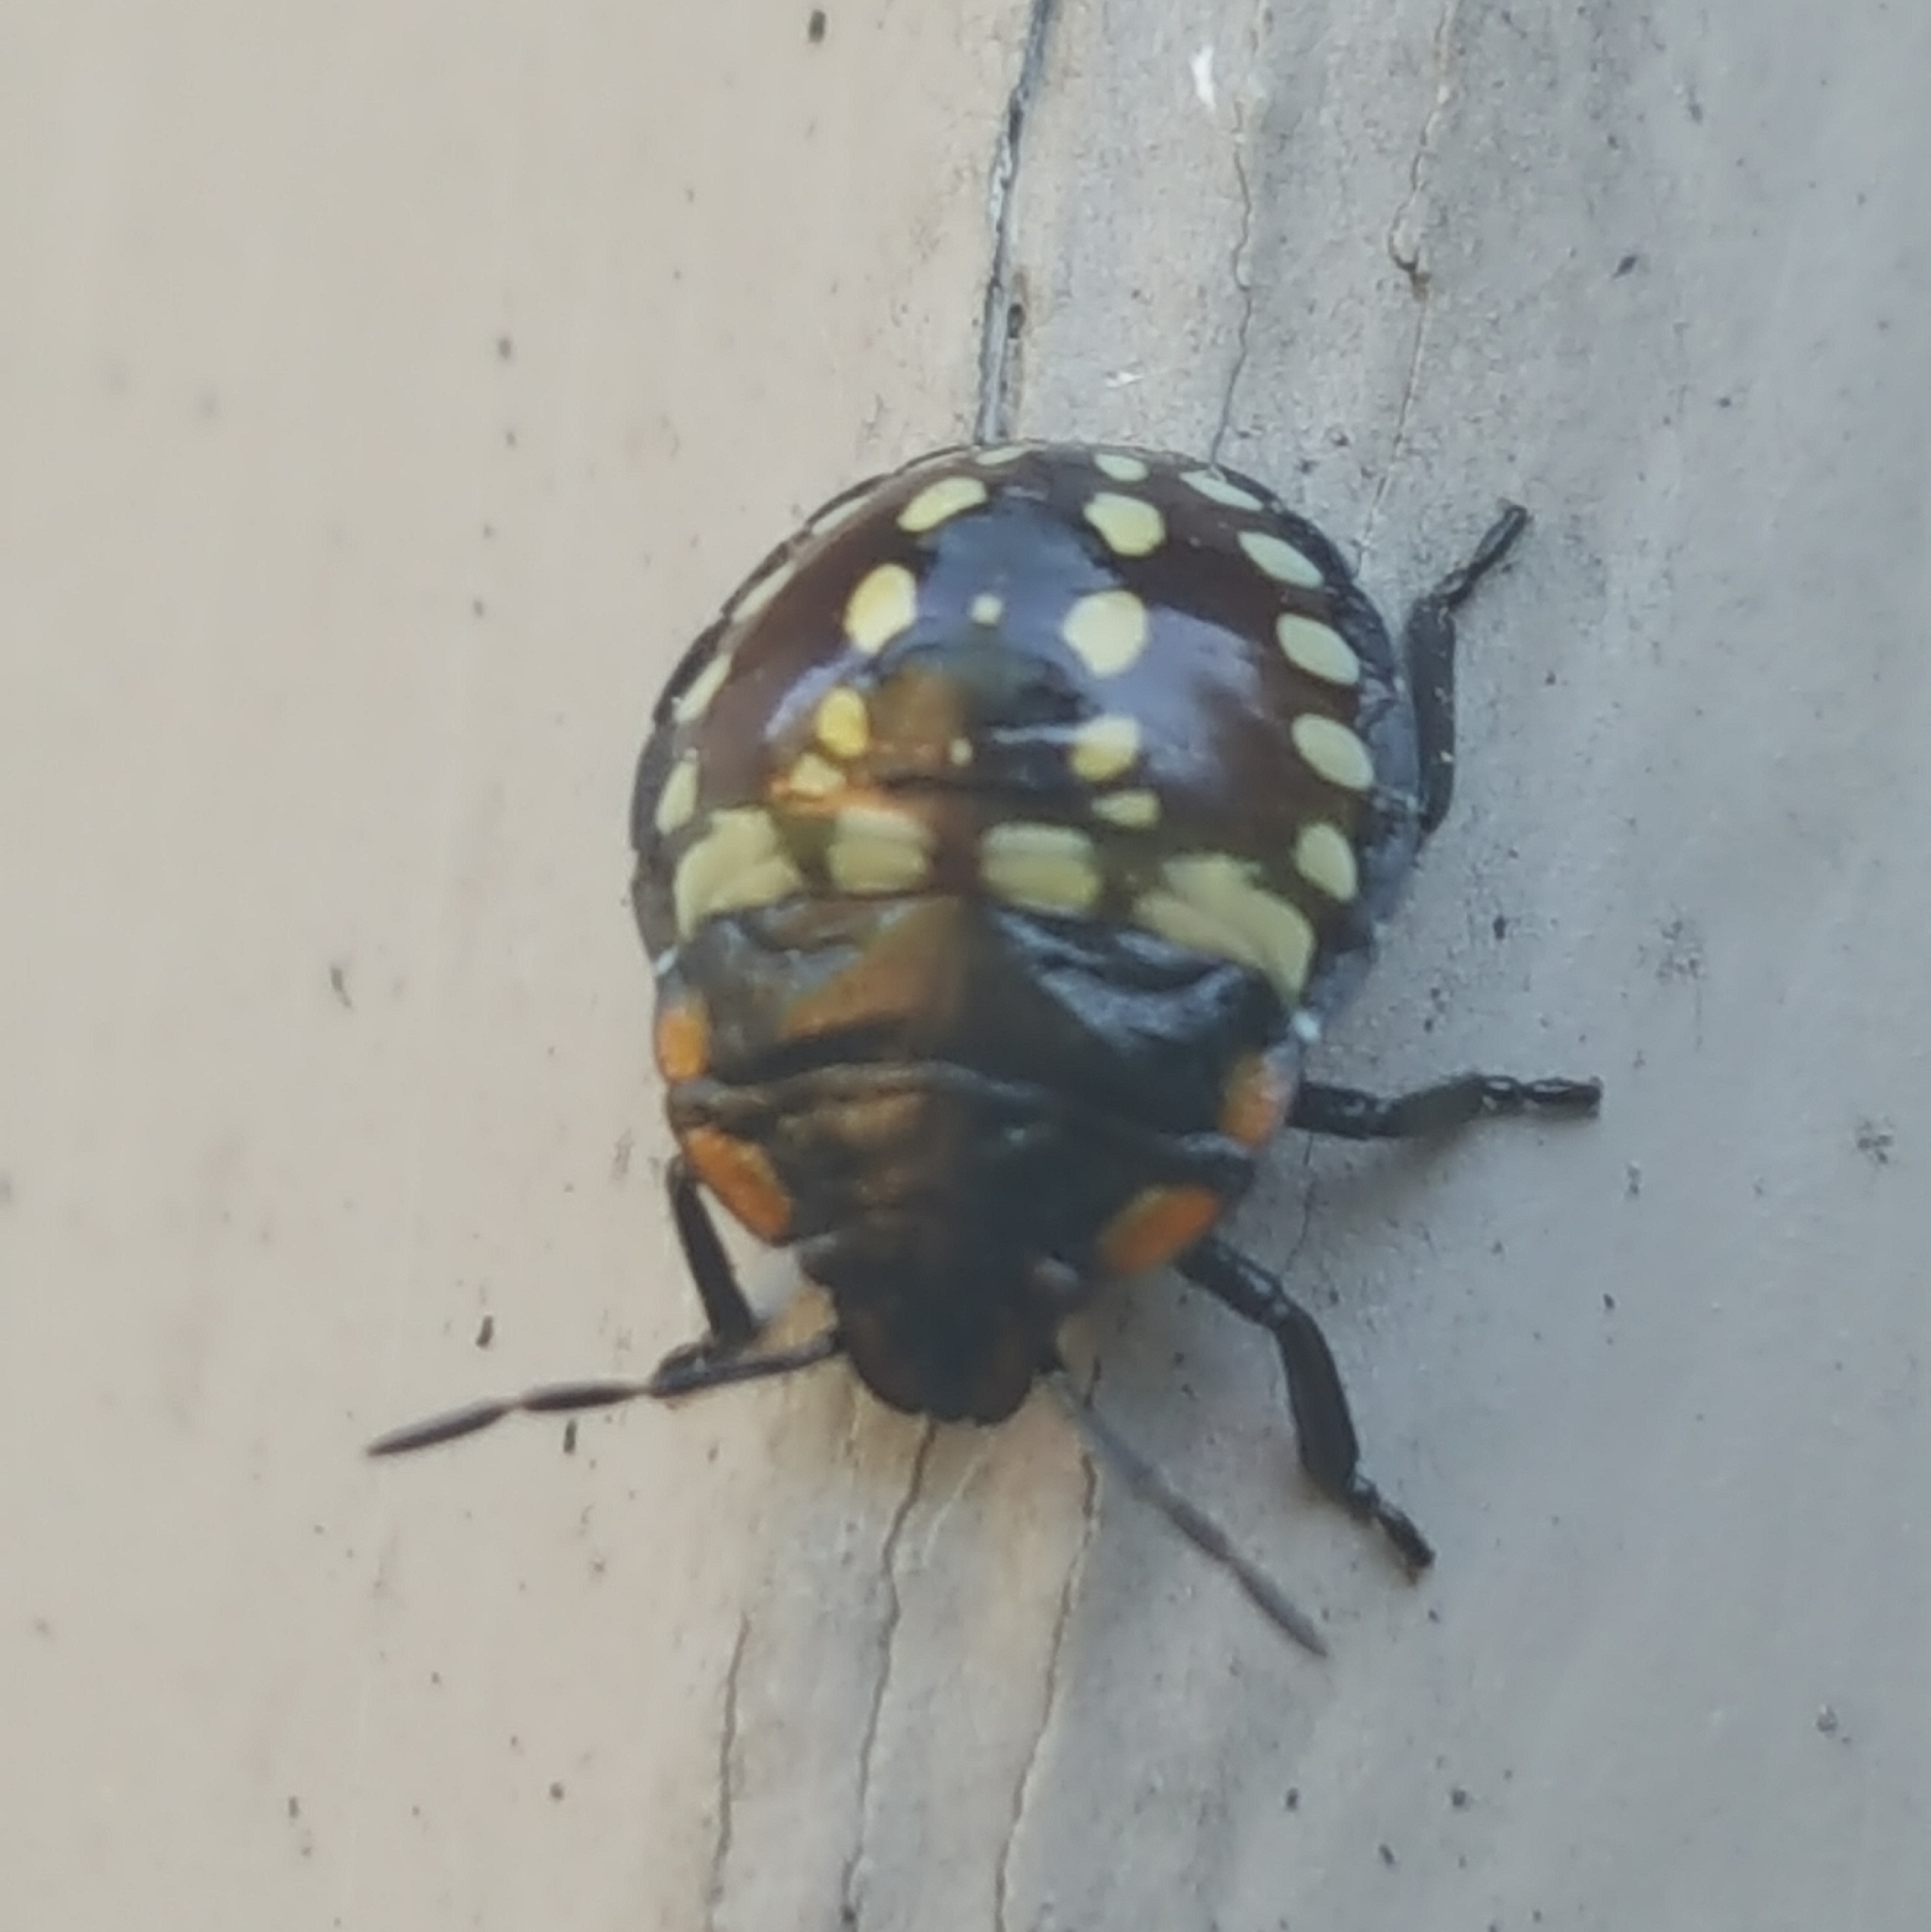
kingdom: Animalia
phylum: Arthropoda
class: Insecta
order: Hemiptera
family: Pentatomidae
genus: Nezara
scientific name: Nezara viridula
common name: Southern green stink bug
